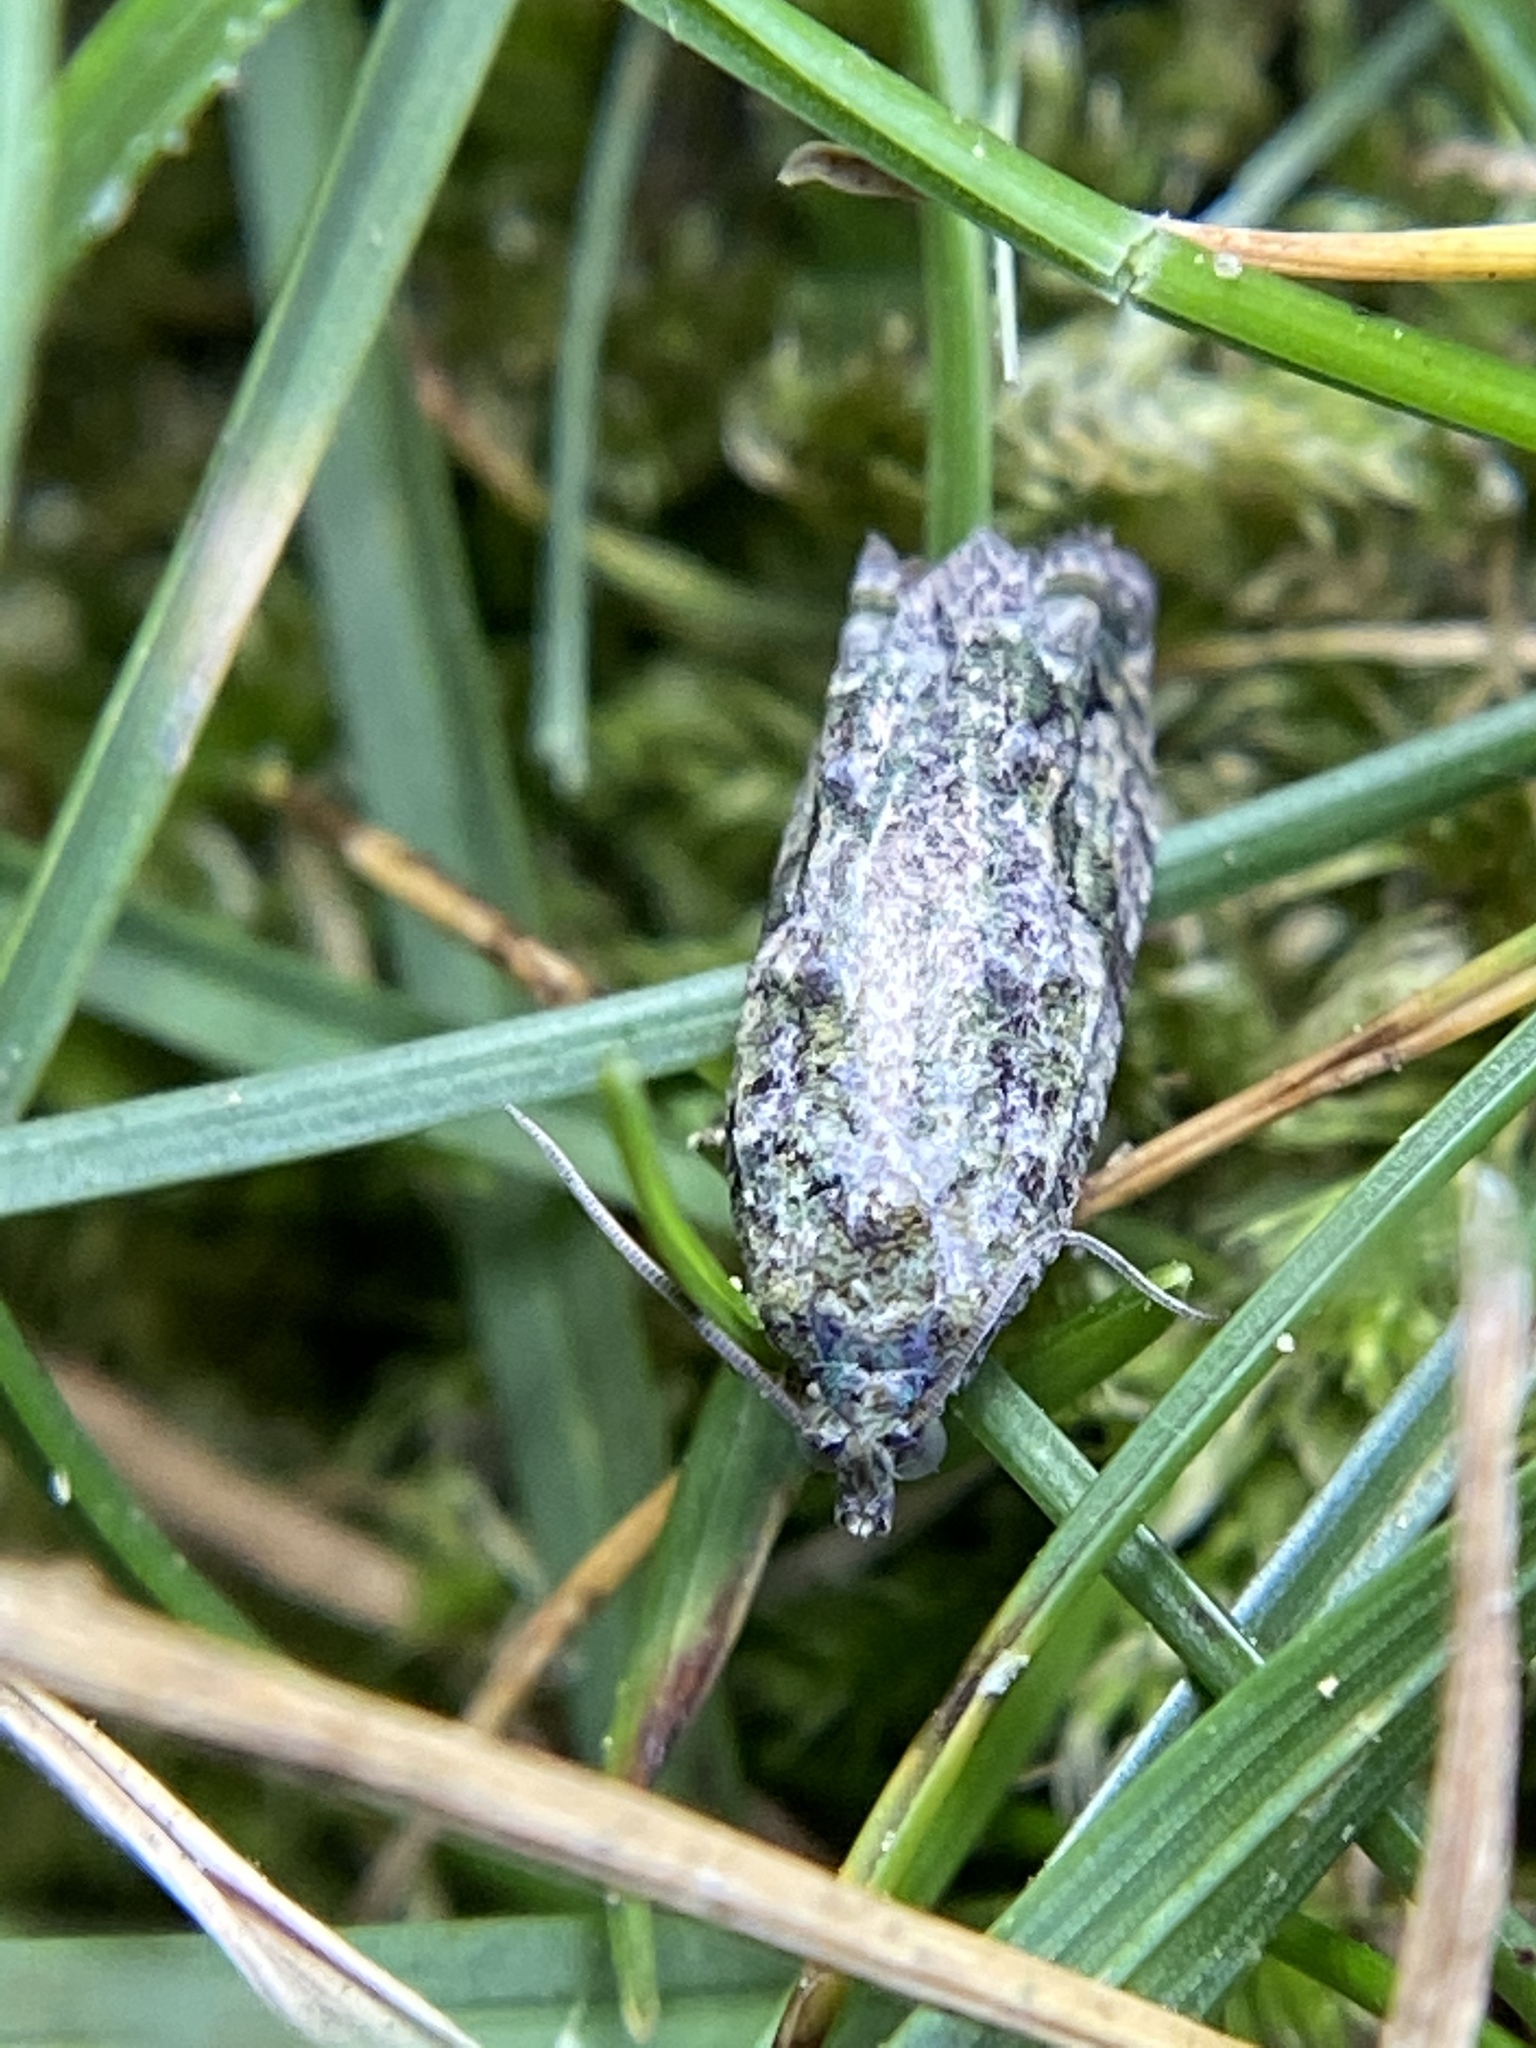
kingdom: Animalia
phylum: Arthropoda
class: Insecta
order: Lepidoptera
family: Tortricidae
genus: Proteoteras
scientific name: Proteoteras aesculana
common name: Maple twig borer moth
